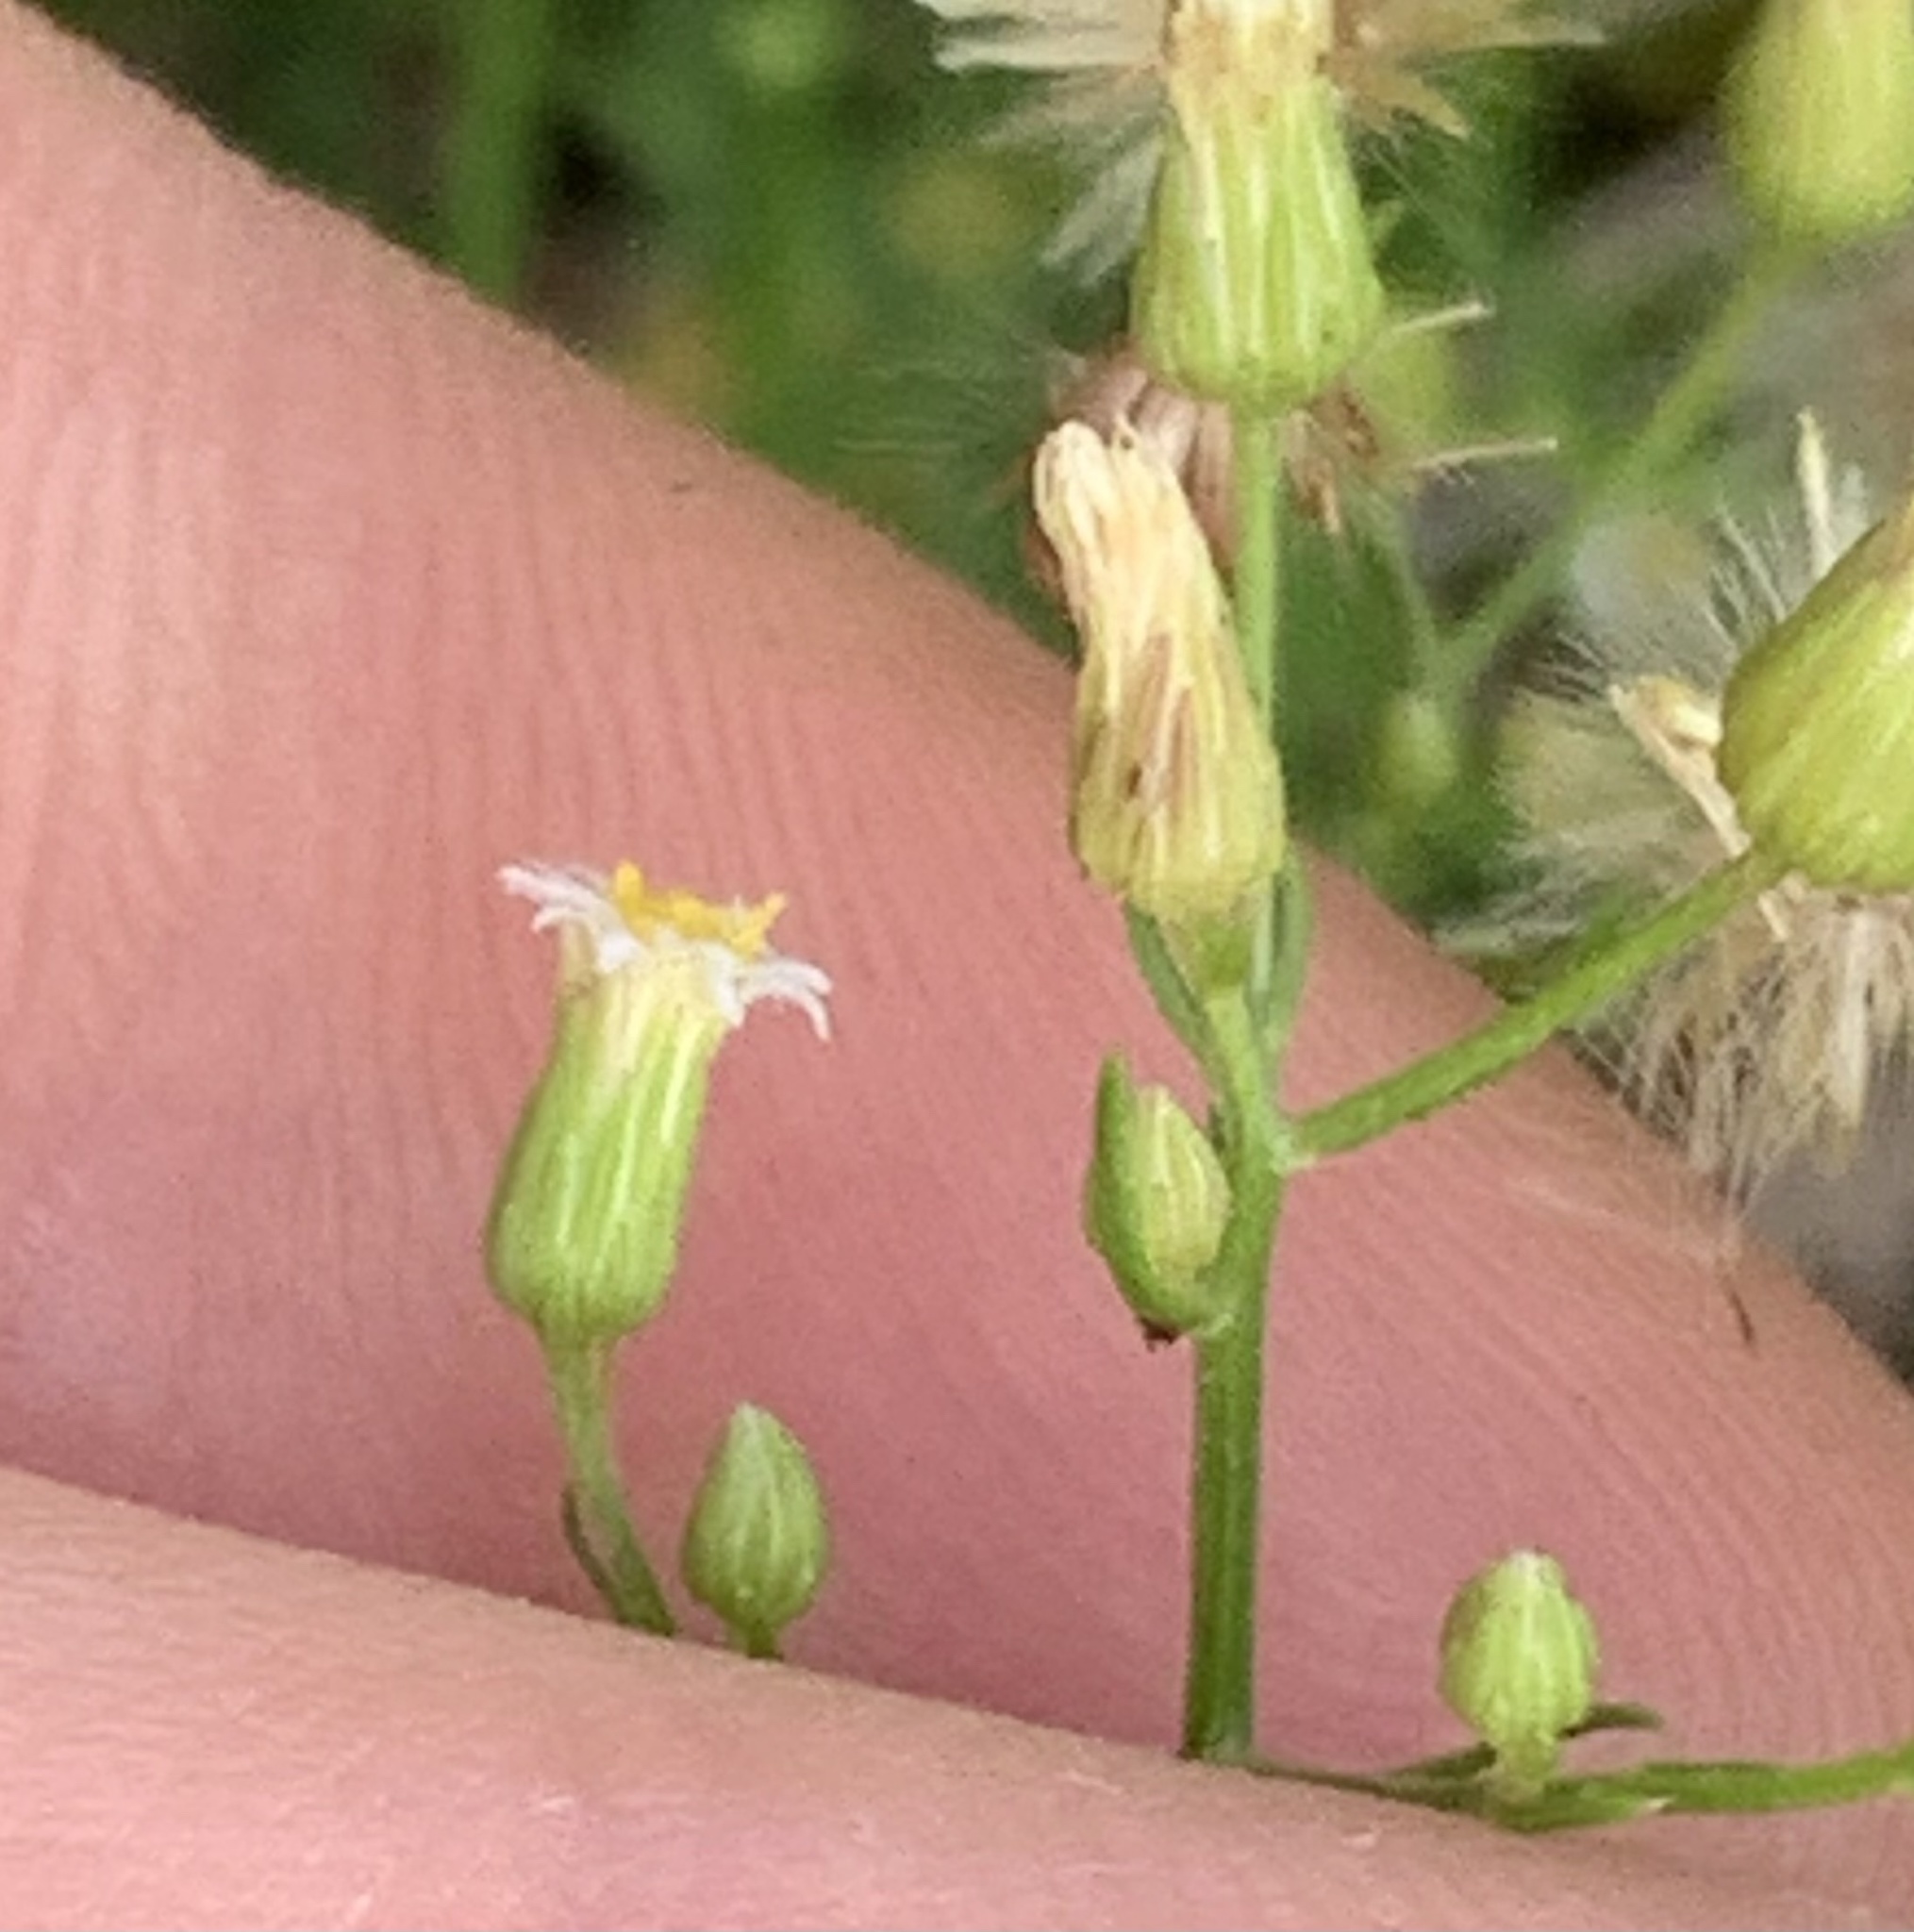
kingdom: Plantae
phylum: Tracheophyta
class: Magnoliopsida
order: Asterales
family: Asteraceae
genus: Erigeron
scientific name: Erigeron canadensis
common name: Canadian fleabane
